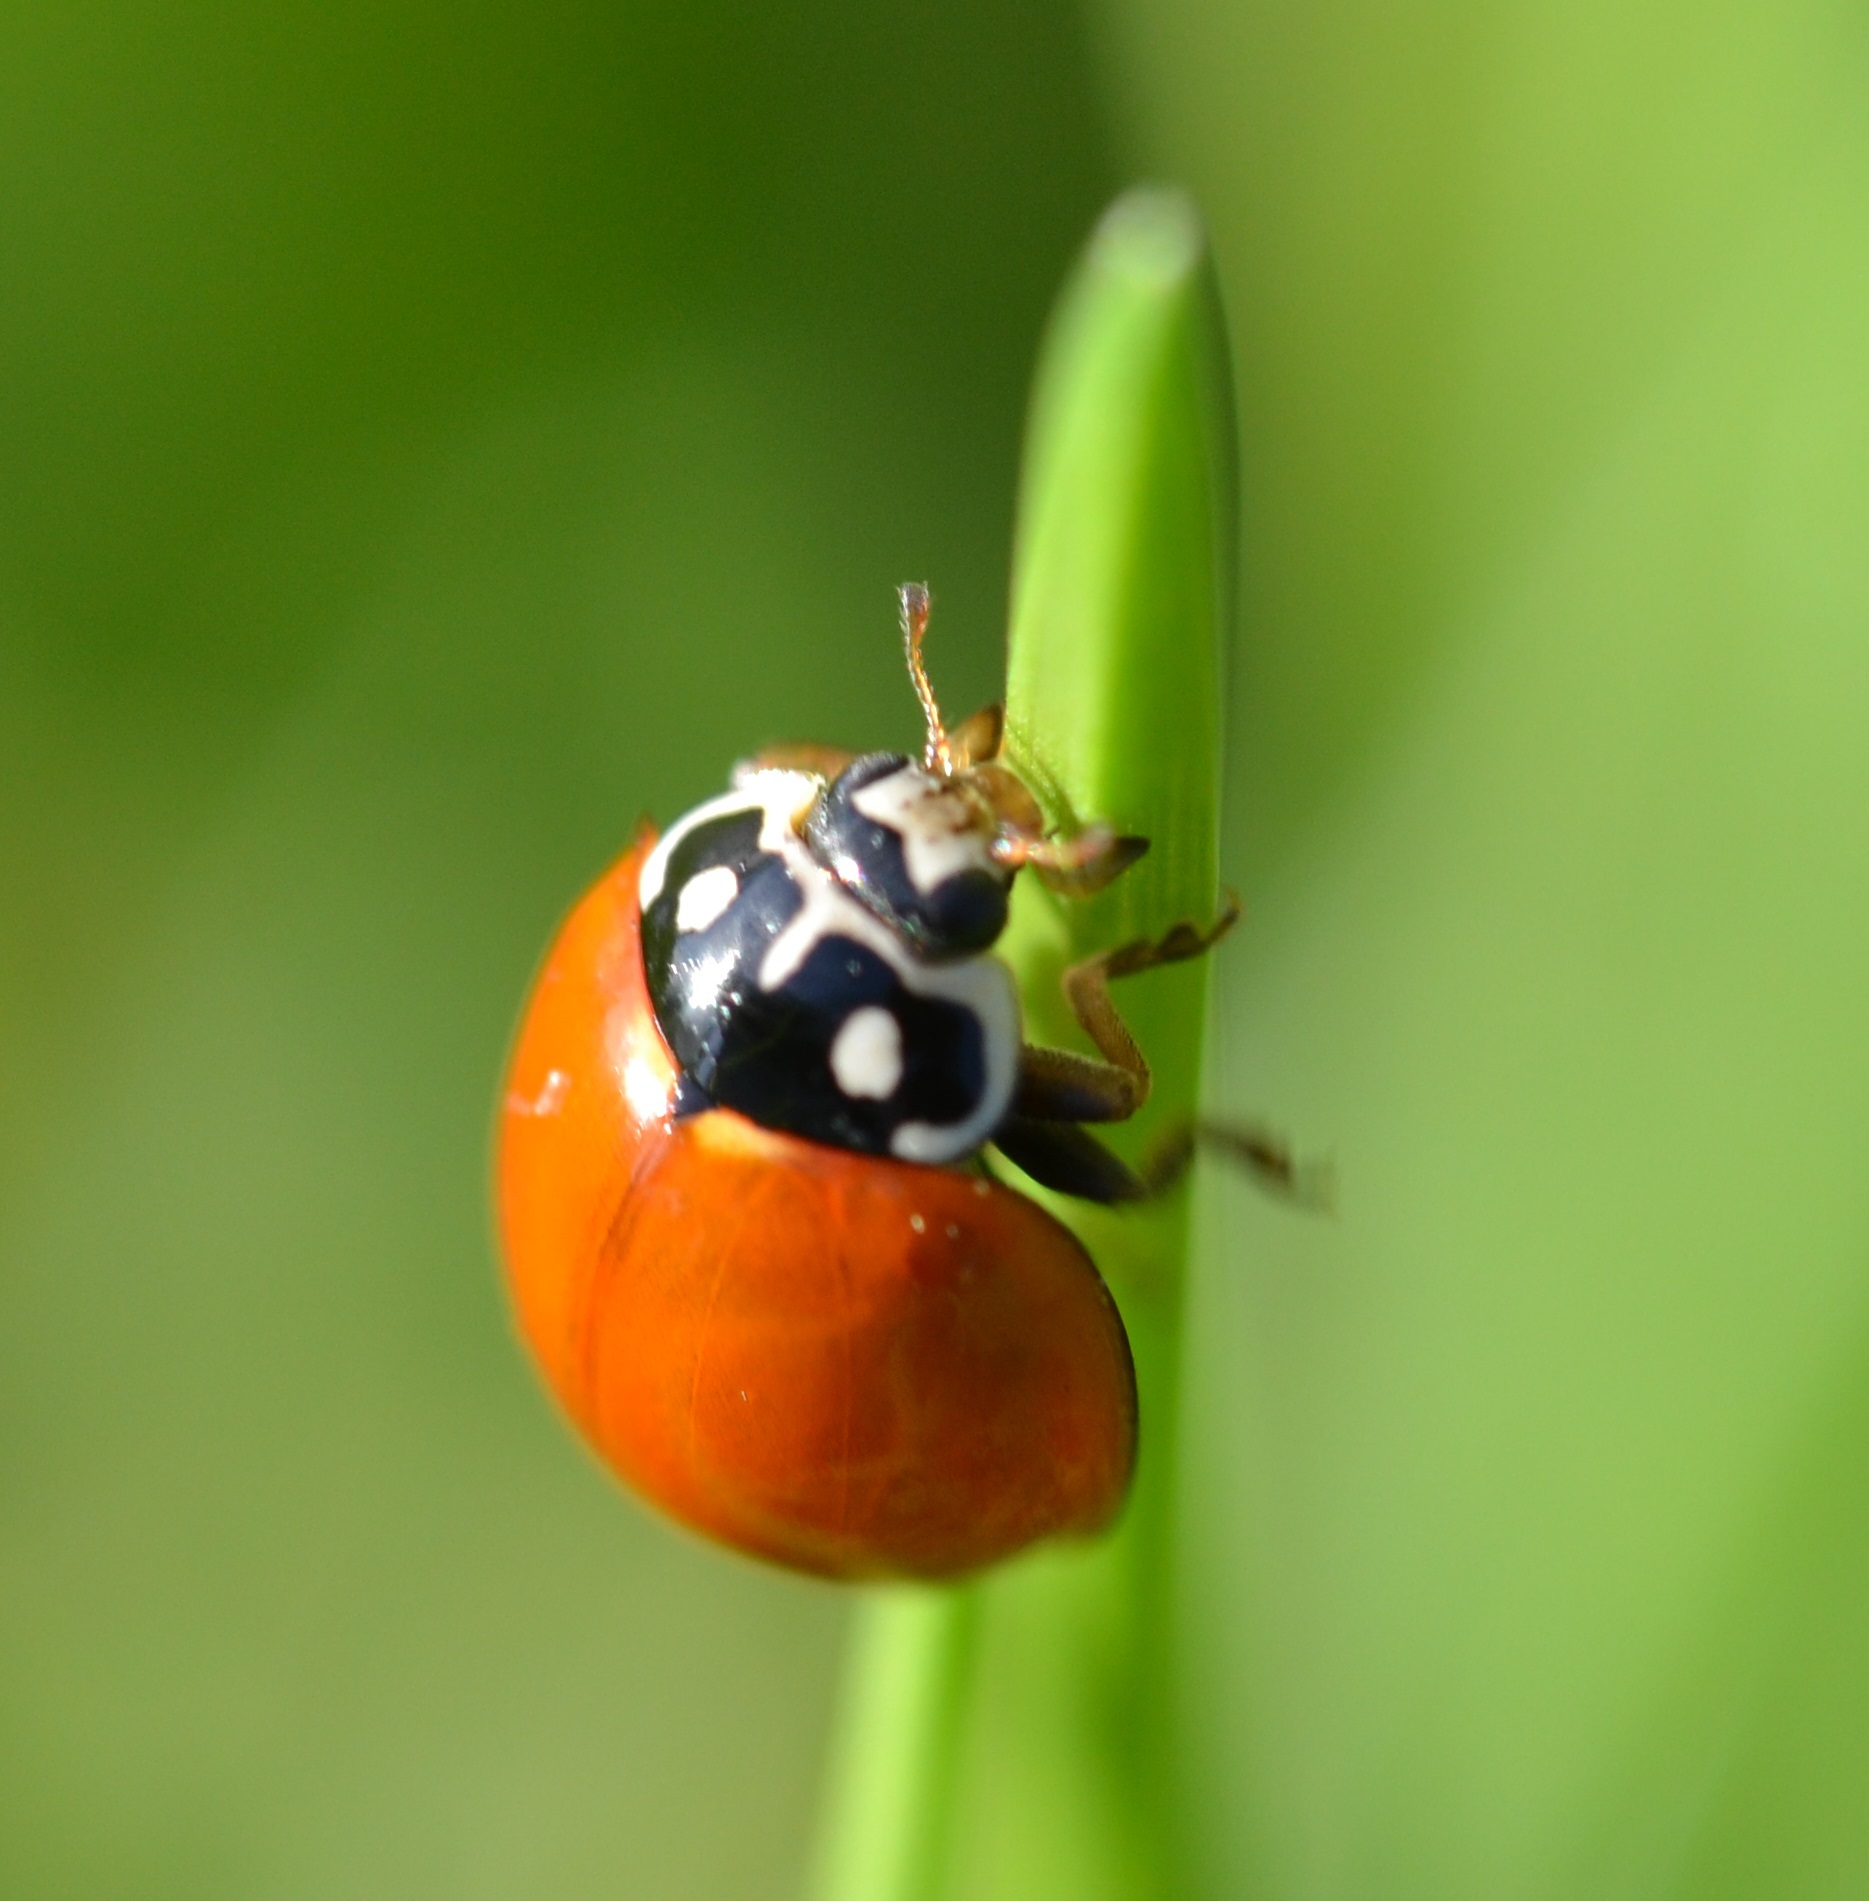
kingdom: Animalia
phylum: Arthropoda
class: Insecta
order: Coleoptera
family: Coccinellidae
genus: Cycloneda
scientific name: Cycloneda sanguinea
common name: Ladybird beetle
